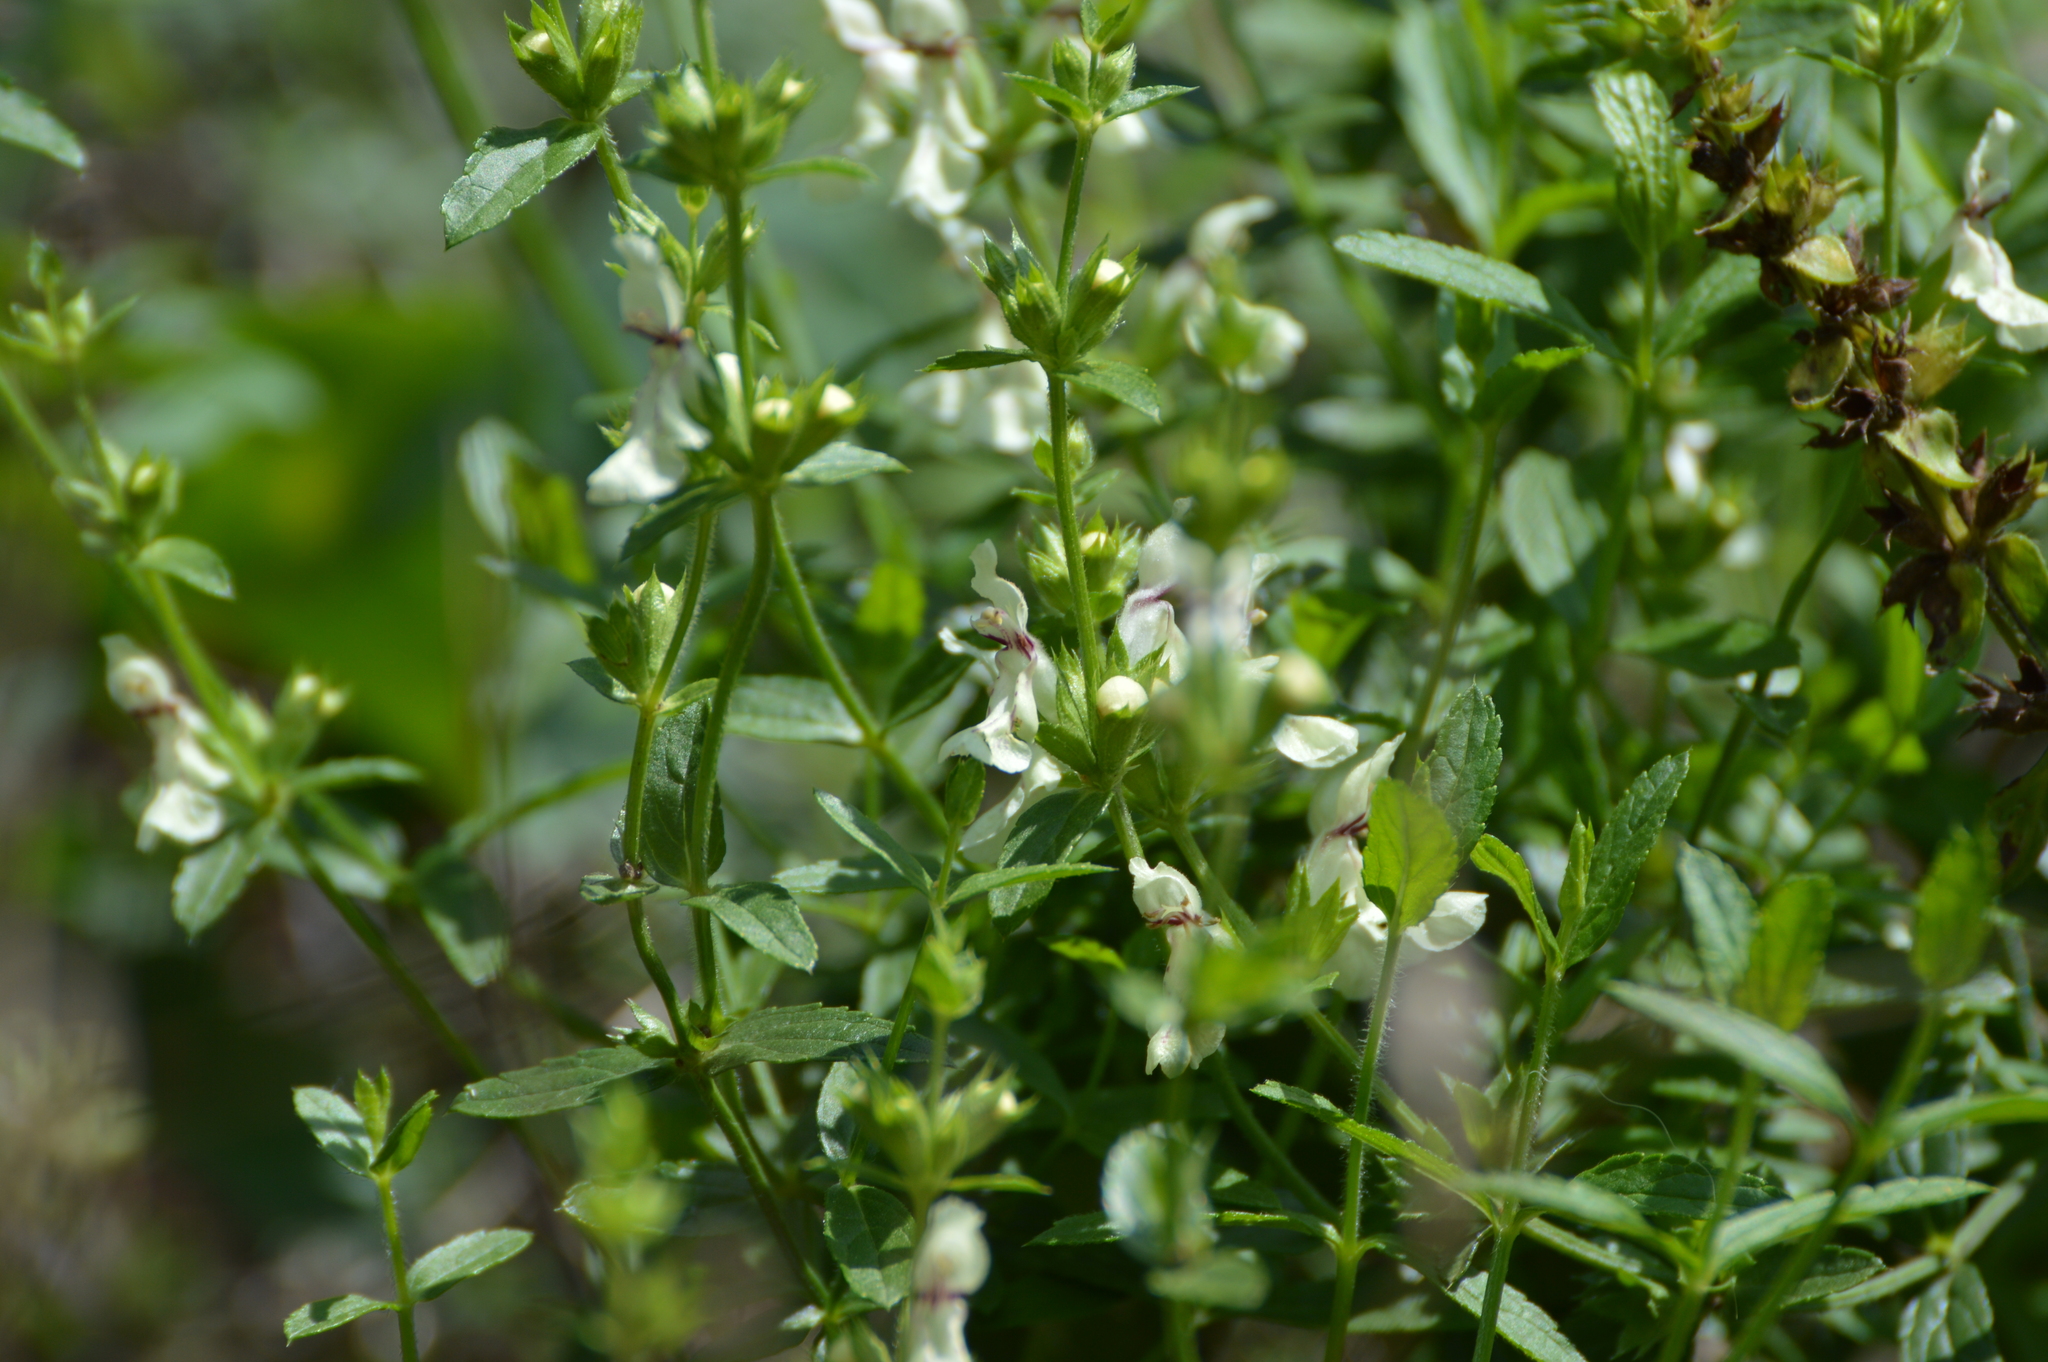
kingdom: Plantae
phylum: Tracheophyta
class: Magnoliopsida
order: Lamiales
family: Lamiaceae
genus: Stachys
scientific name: Stachys recta
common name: Perennial yellow-woundwort
